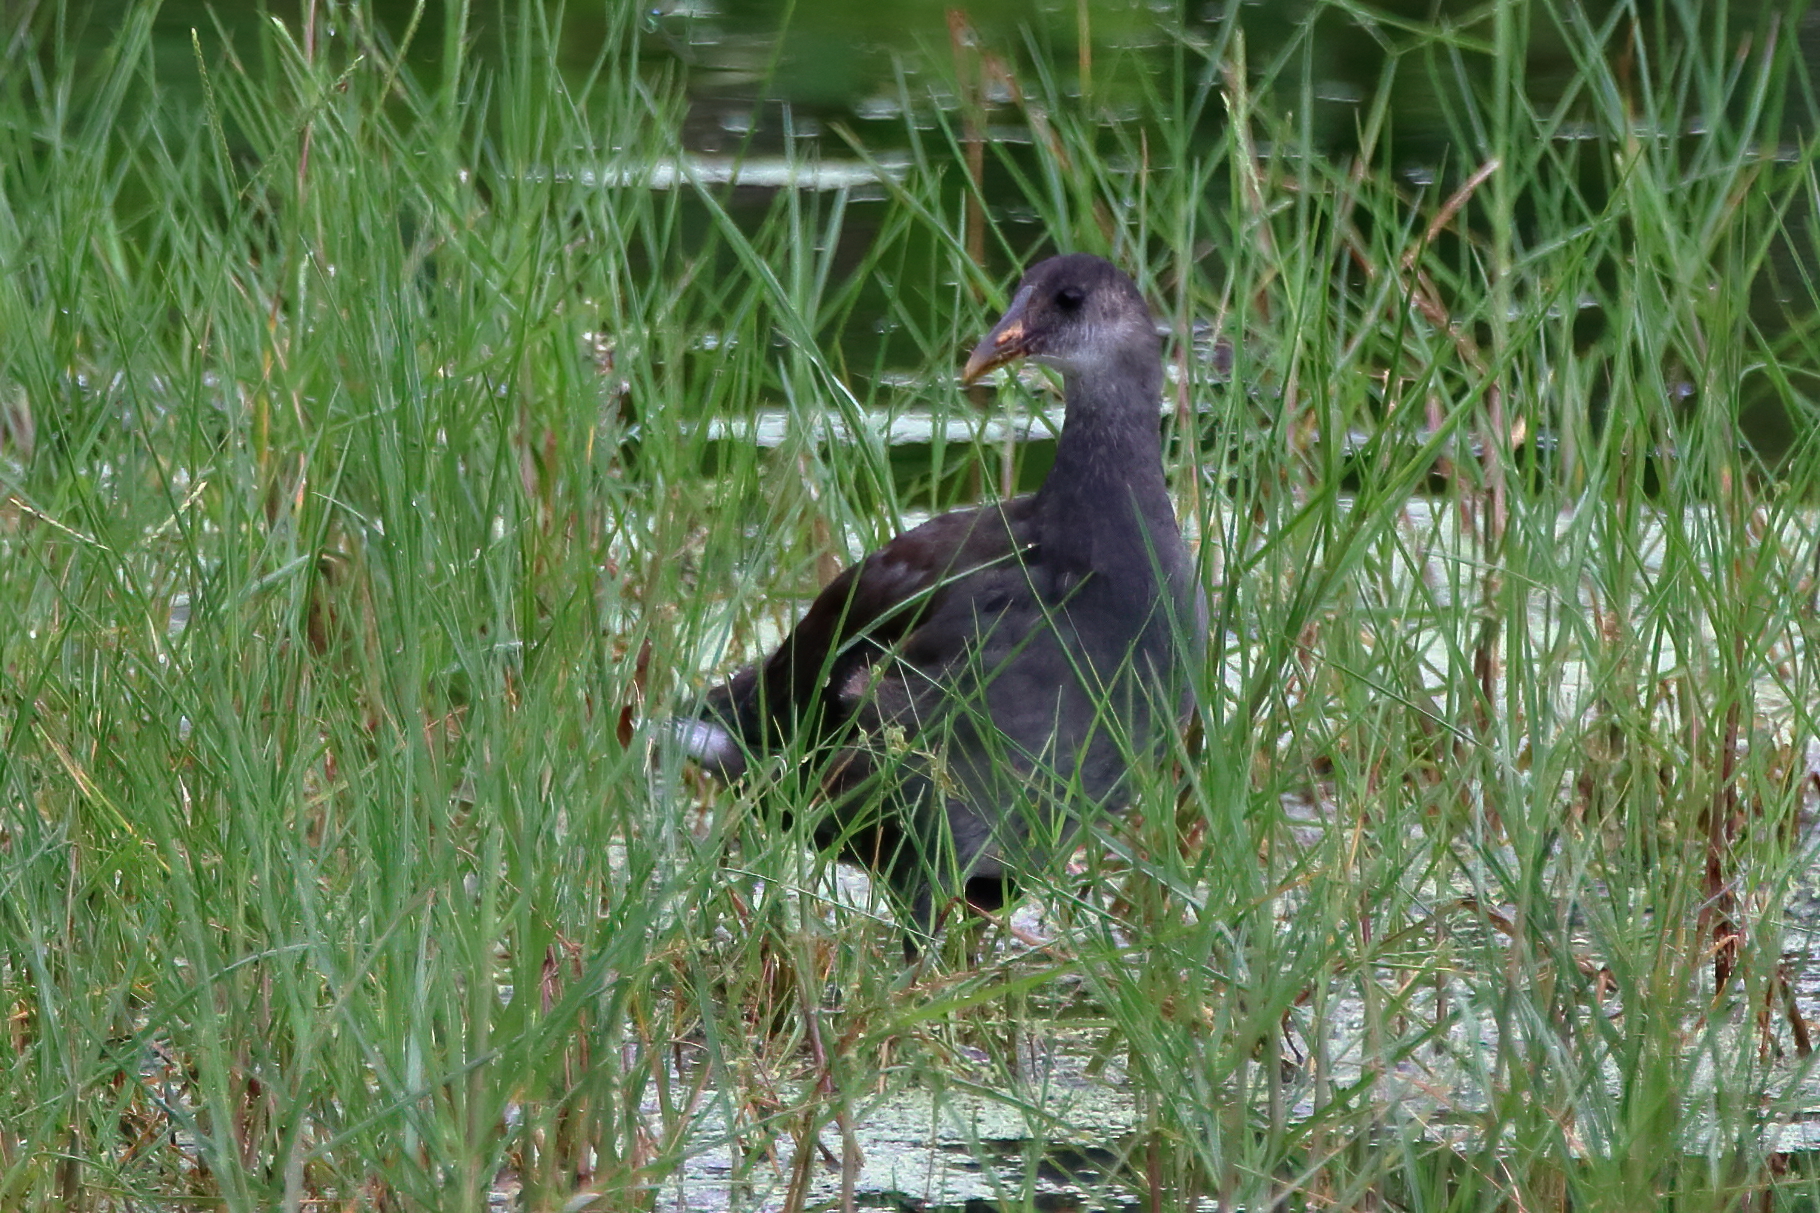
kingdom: Animalia
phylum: Chordata
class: Aves
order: Gruiformes
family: Rallidae
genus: Gallinula
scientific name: Gallinula chloropus
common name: Common moorhen
